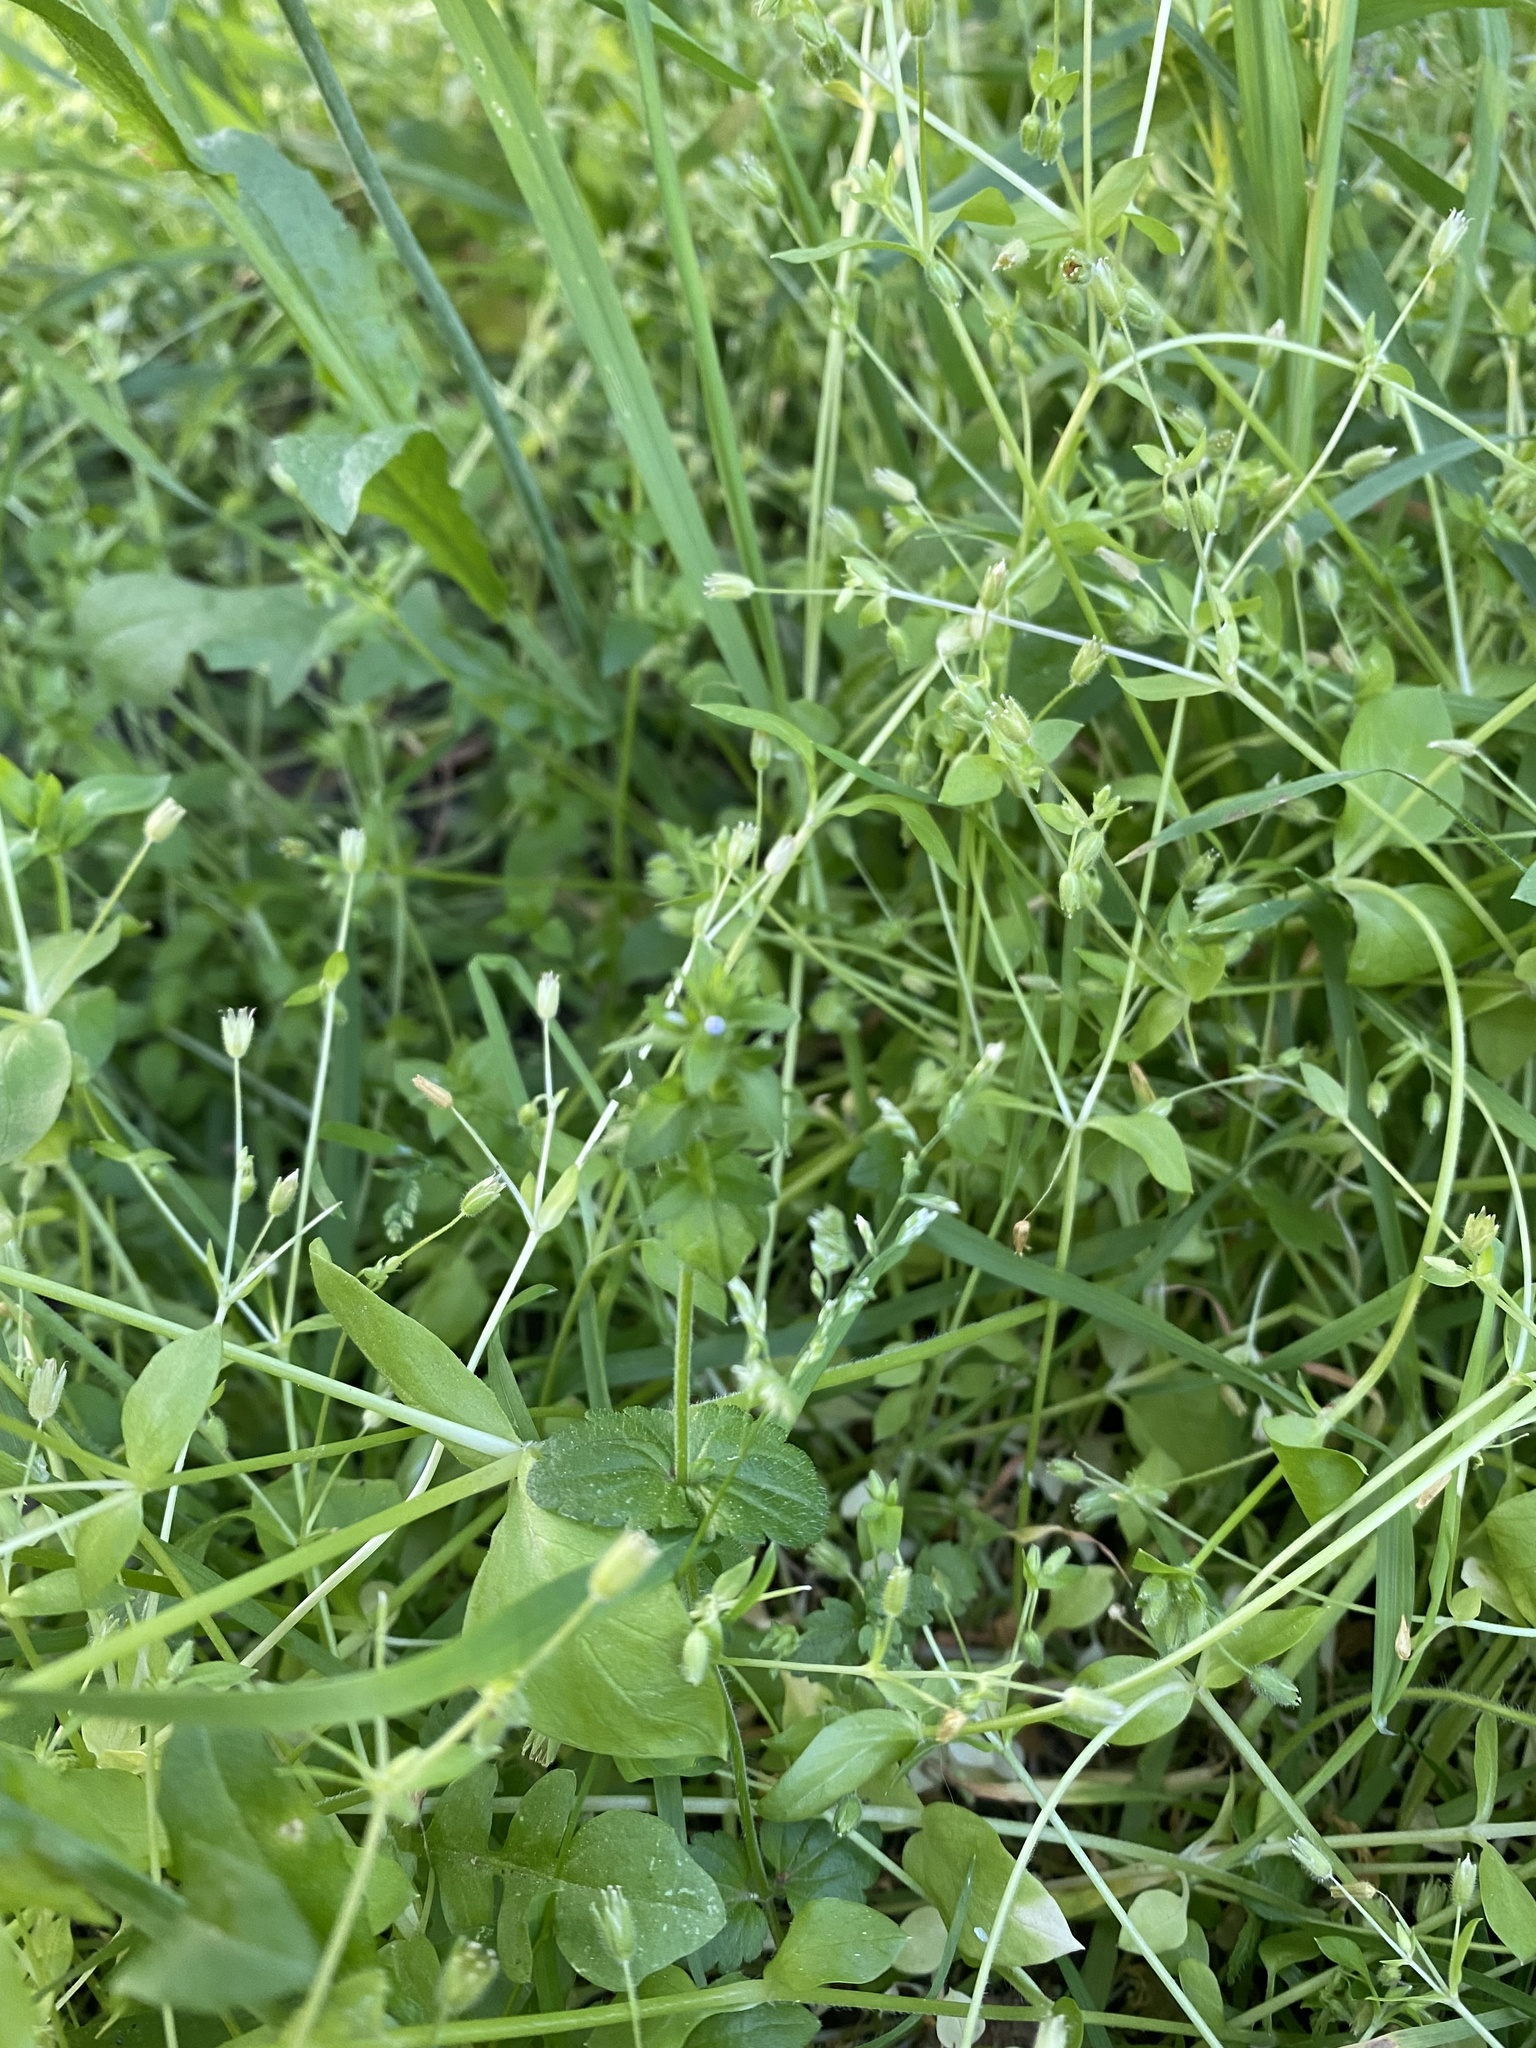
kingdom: Plantae
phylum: Tracheophyta
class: Magnoliopsida
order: Lamiales
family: Plantaginaceae
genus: Veronica
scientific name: Veronica arvensis
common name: Corn speedwell
